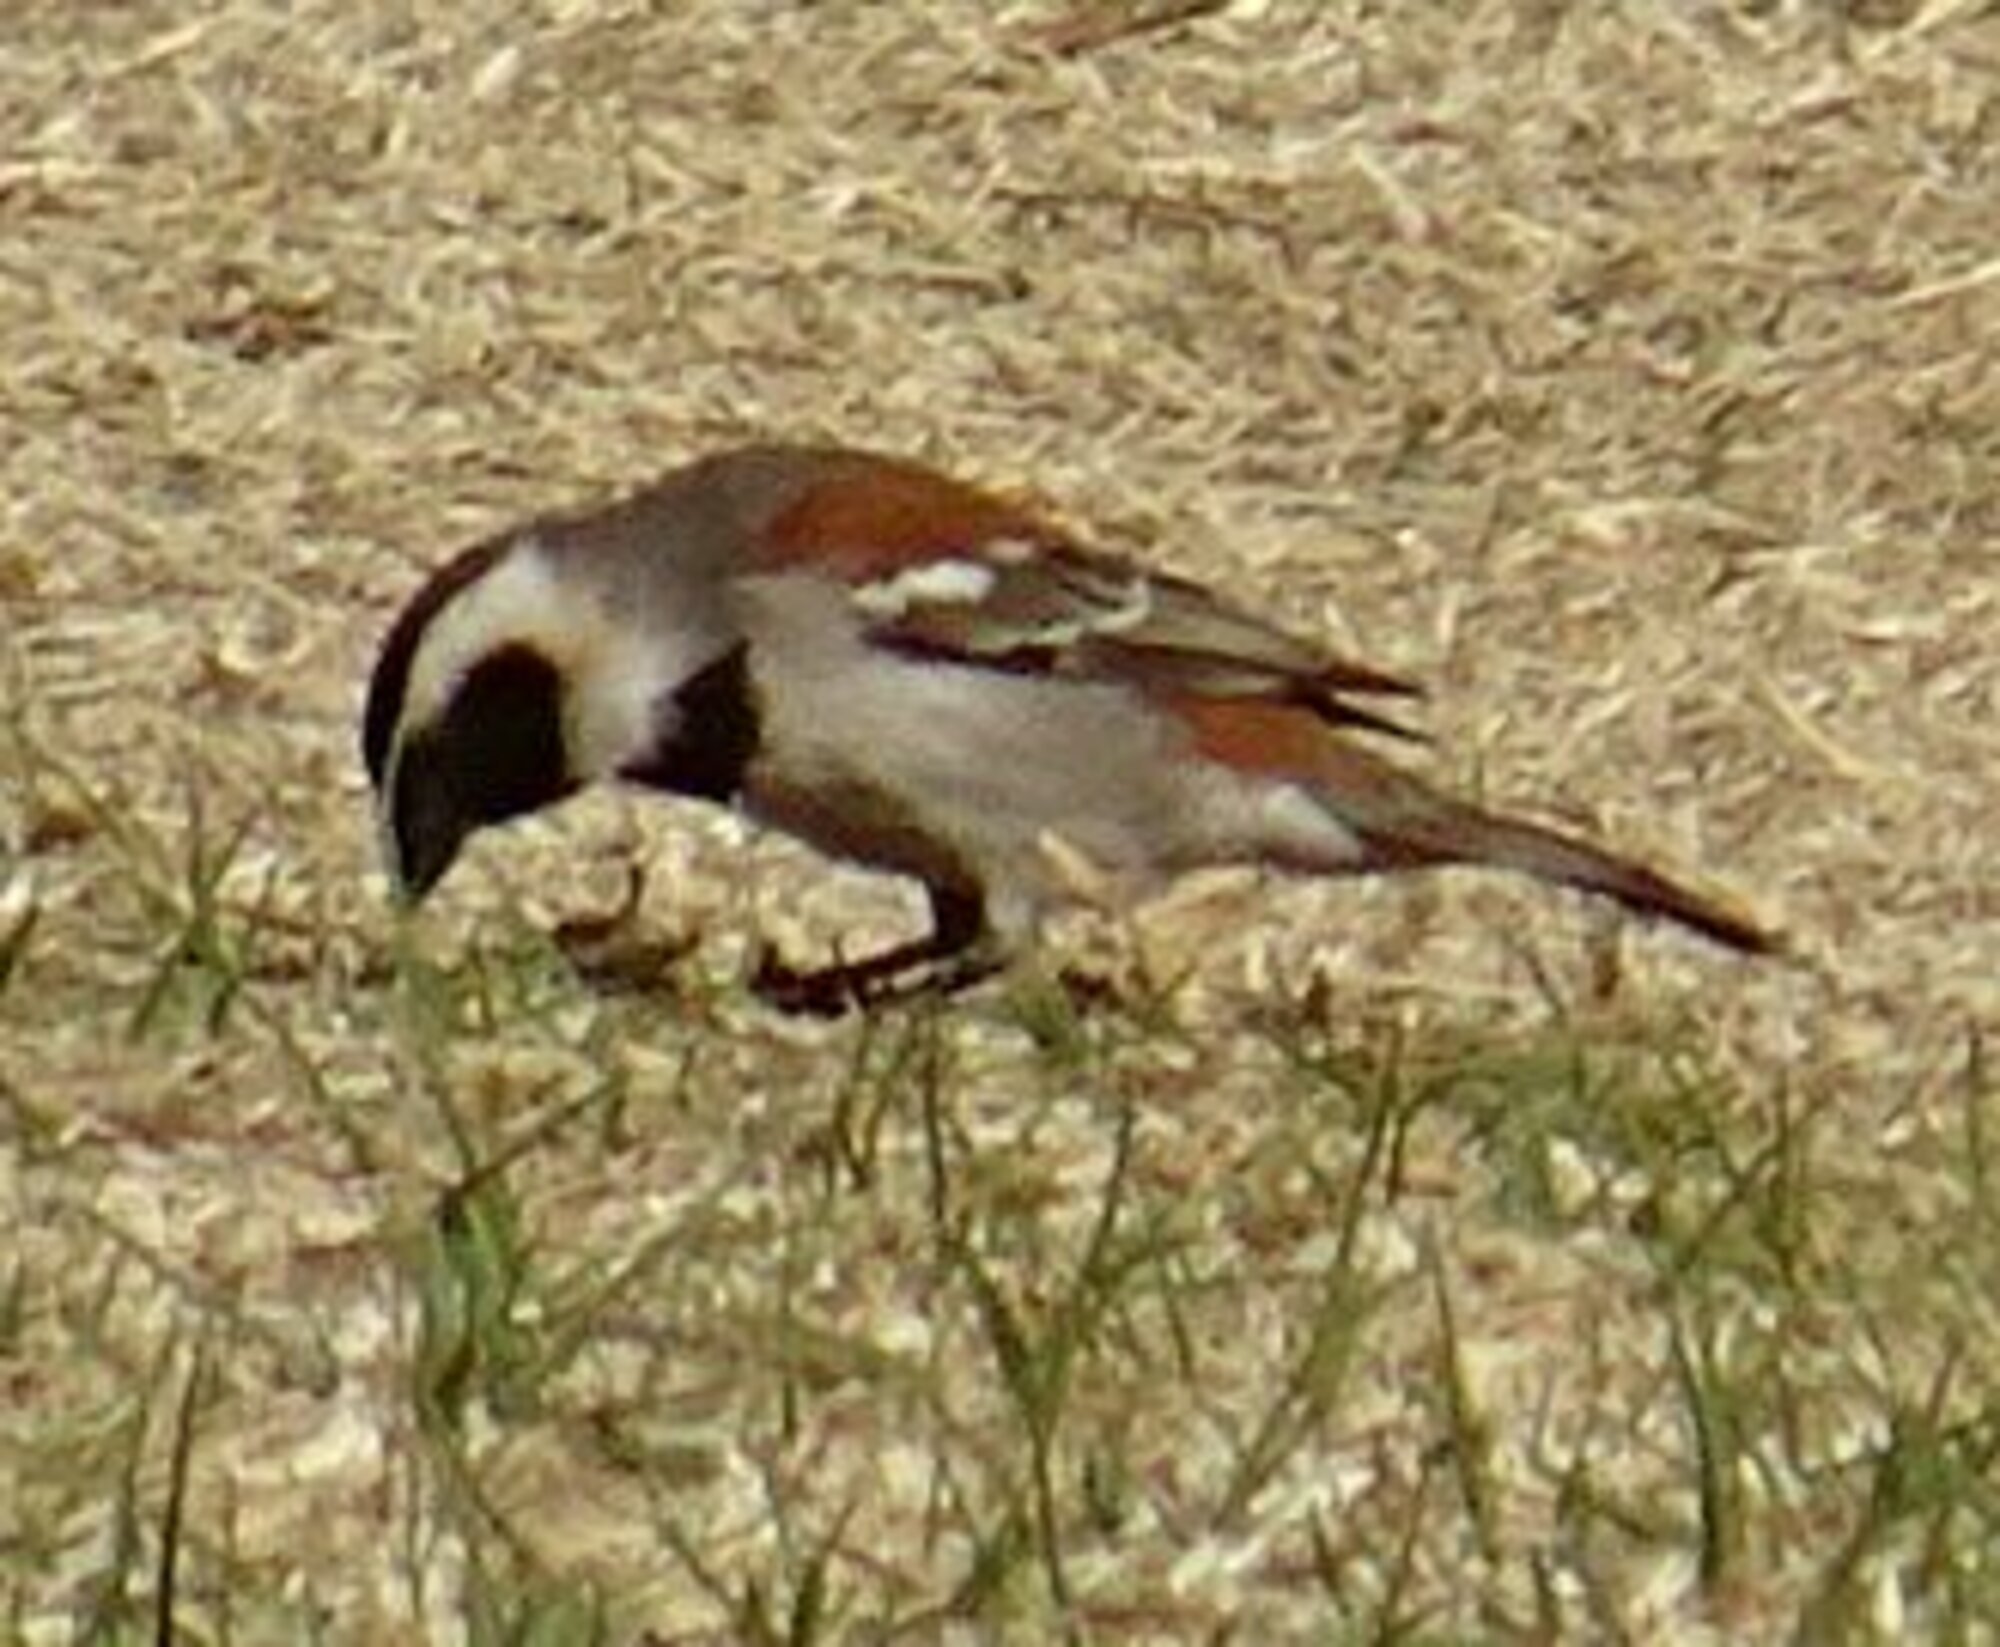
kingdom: Animalia
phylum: Chordata
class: Aves
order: Passeriformes
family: Passeridae
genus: Passer
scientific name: Passer melanurus
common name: Cape sparrow
